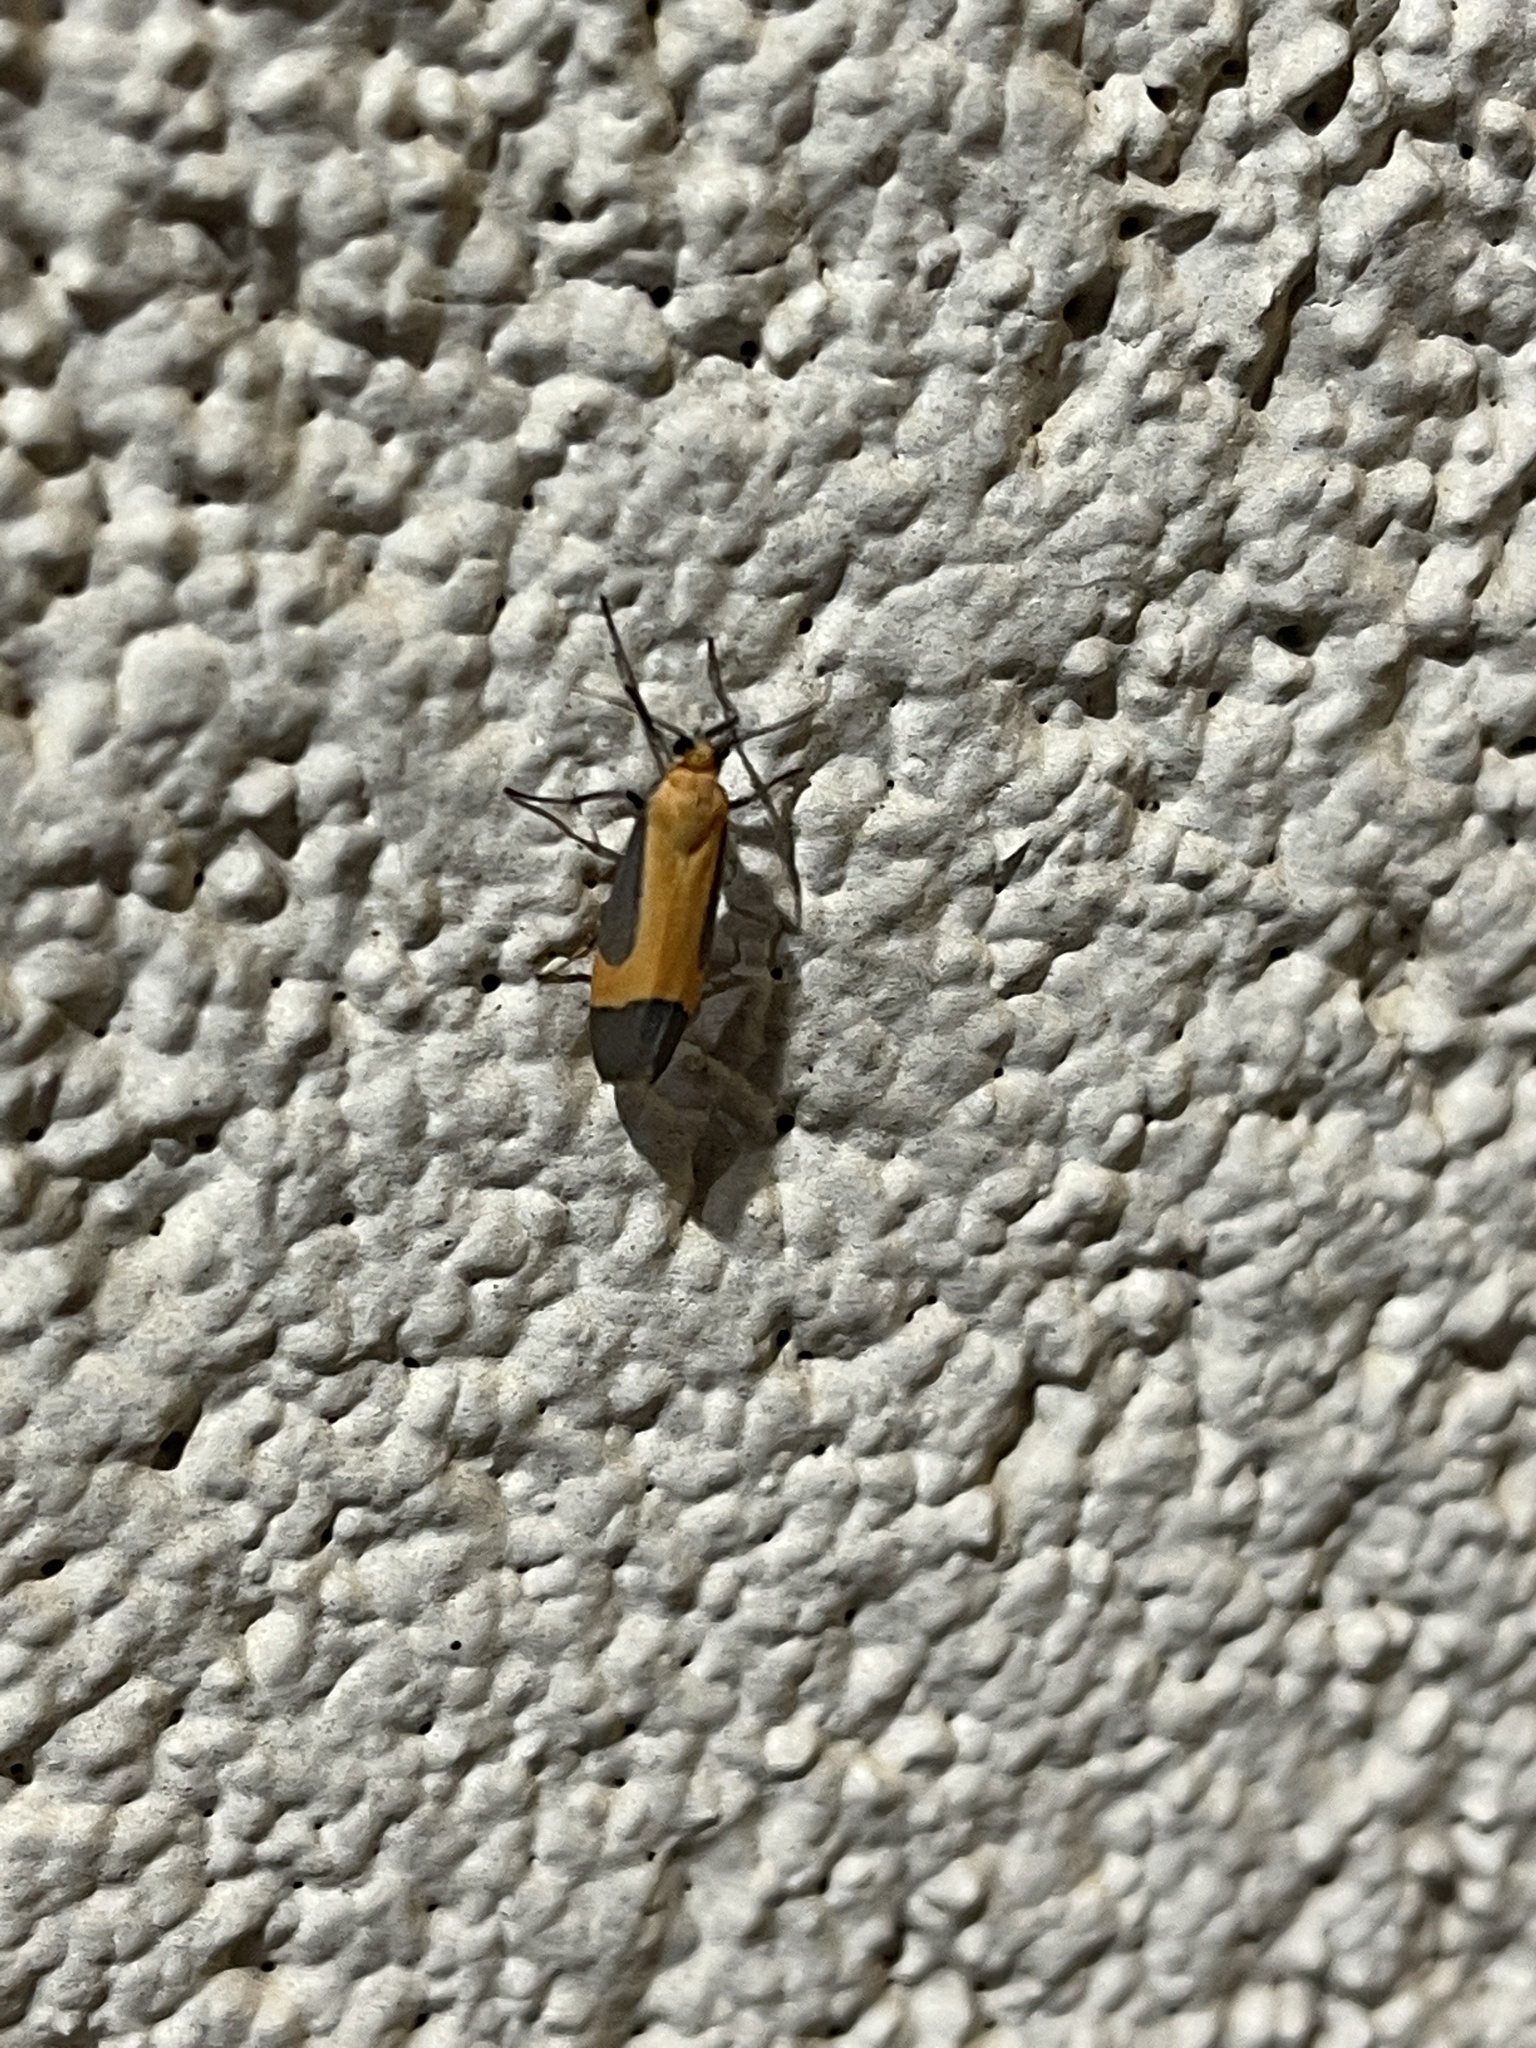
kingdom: Animalia
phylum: Arthropoda
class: Insecta
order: Lepidoptera
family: Erebidae
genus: Cisthene
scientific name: Cisthene angelus
